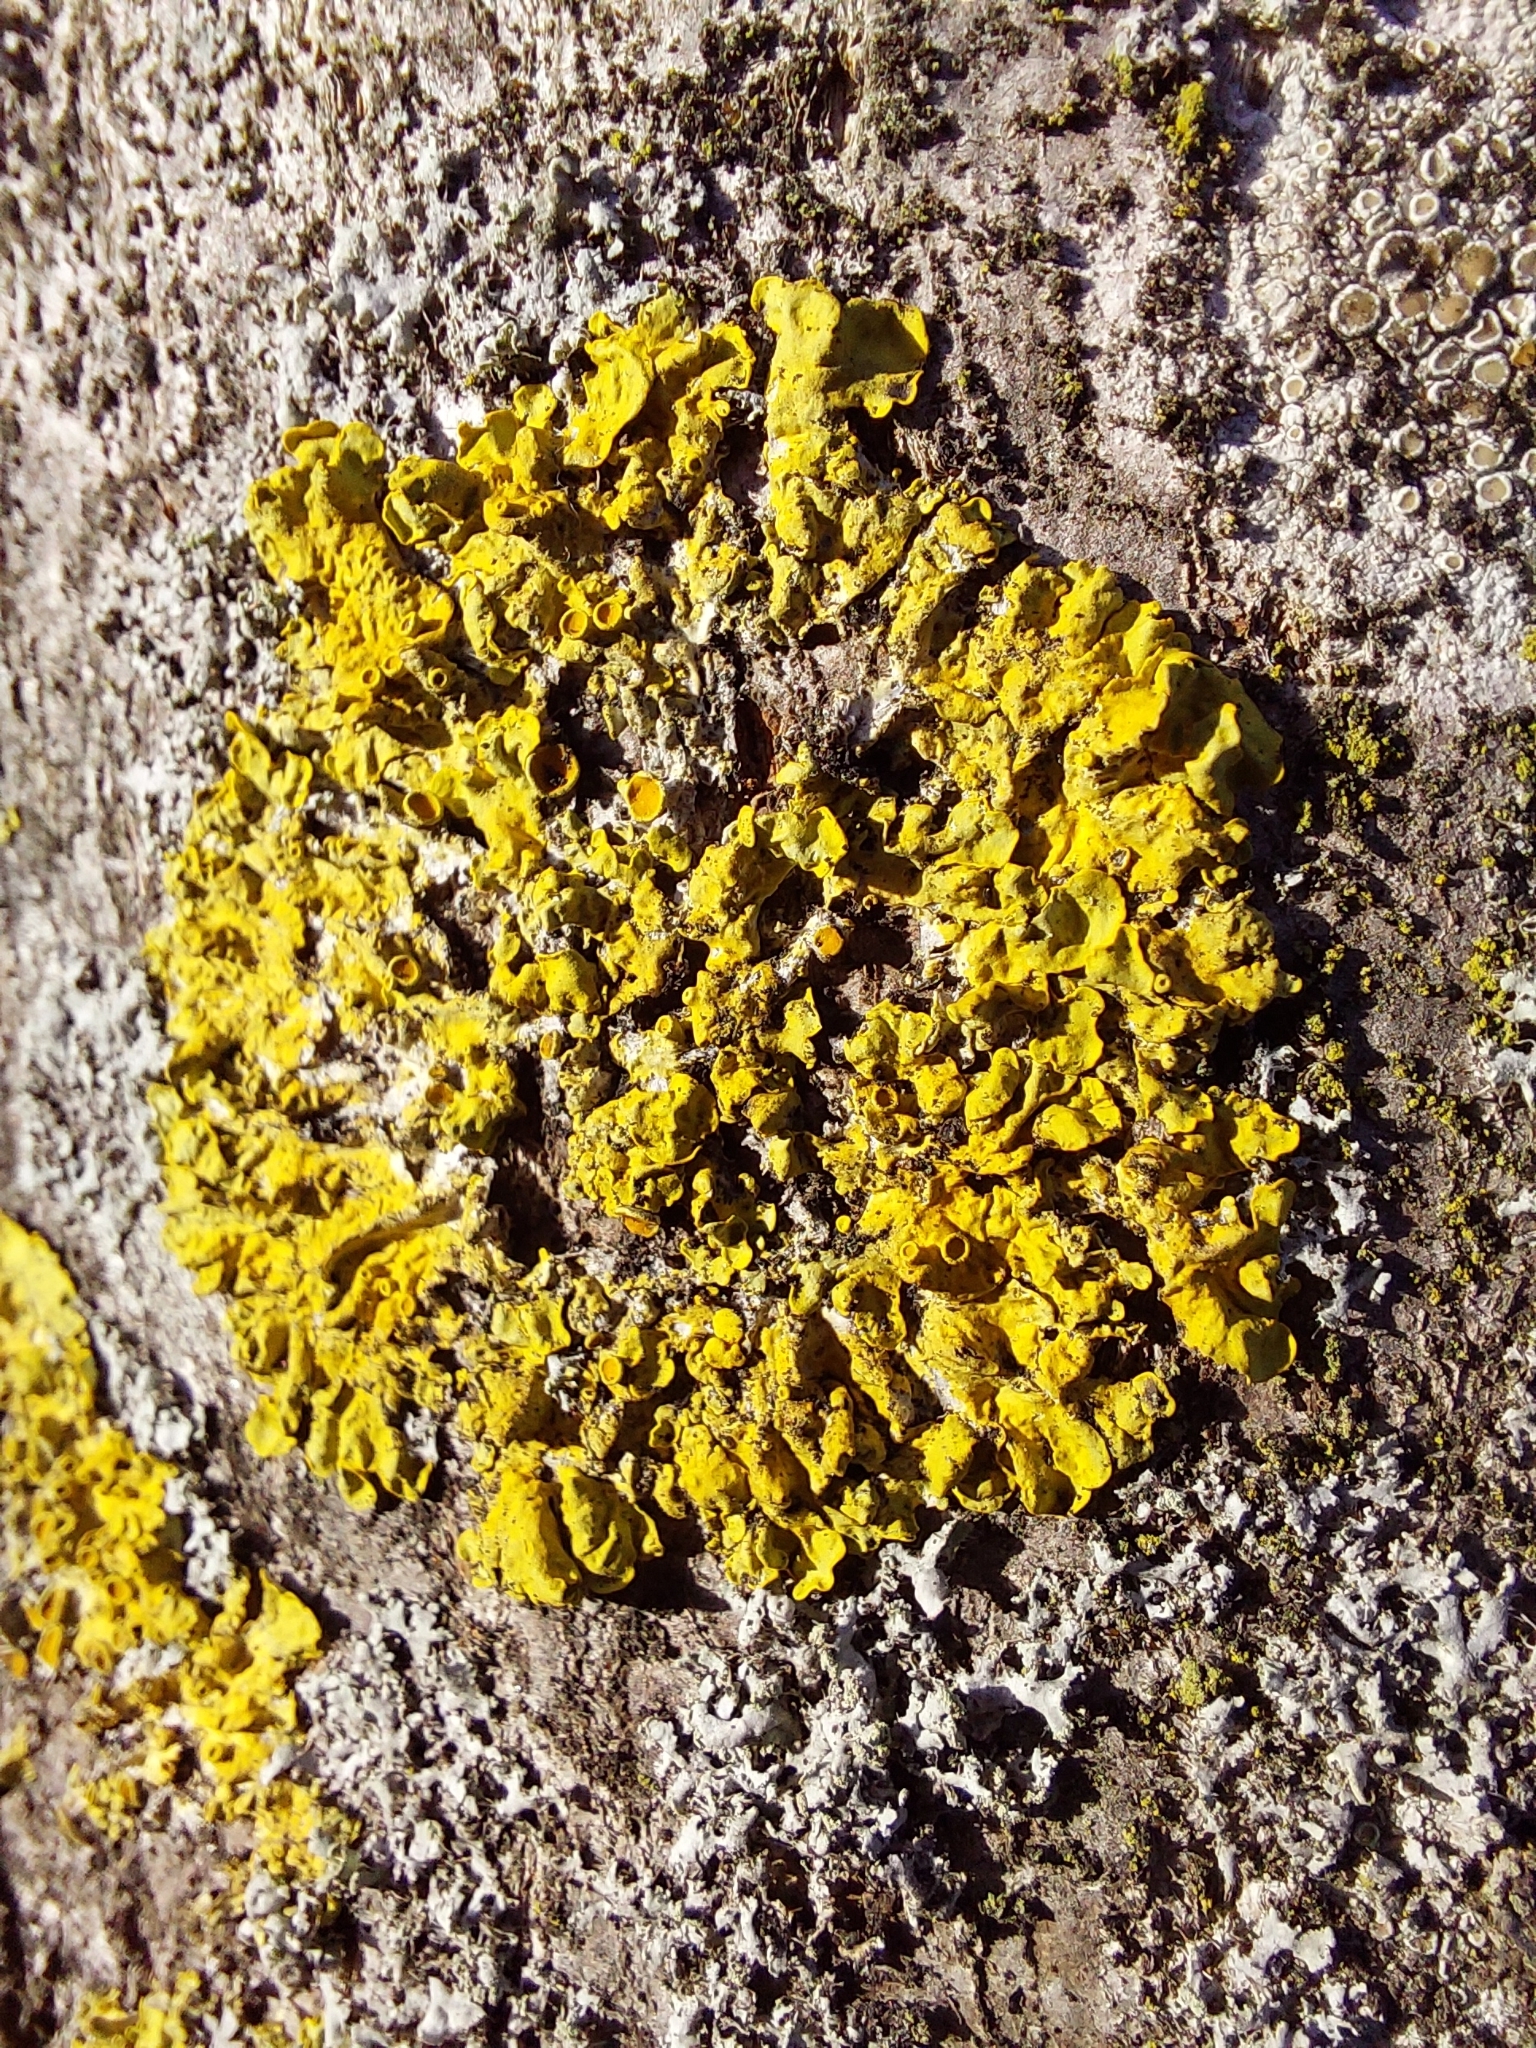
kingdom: Fungi
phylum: Ascomycota
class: Lecanoromycetes
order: Teloschistales
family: Teloschistaceae
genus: Xanthoria
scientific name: Xanthoria parietina
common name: Common orange lichen
